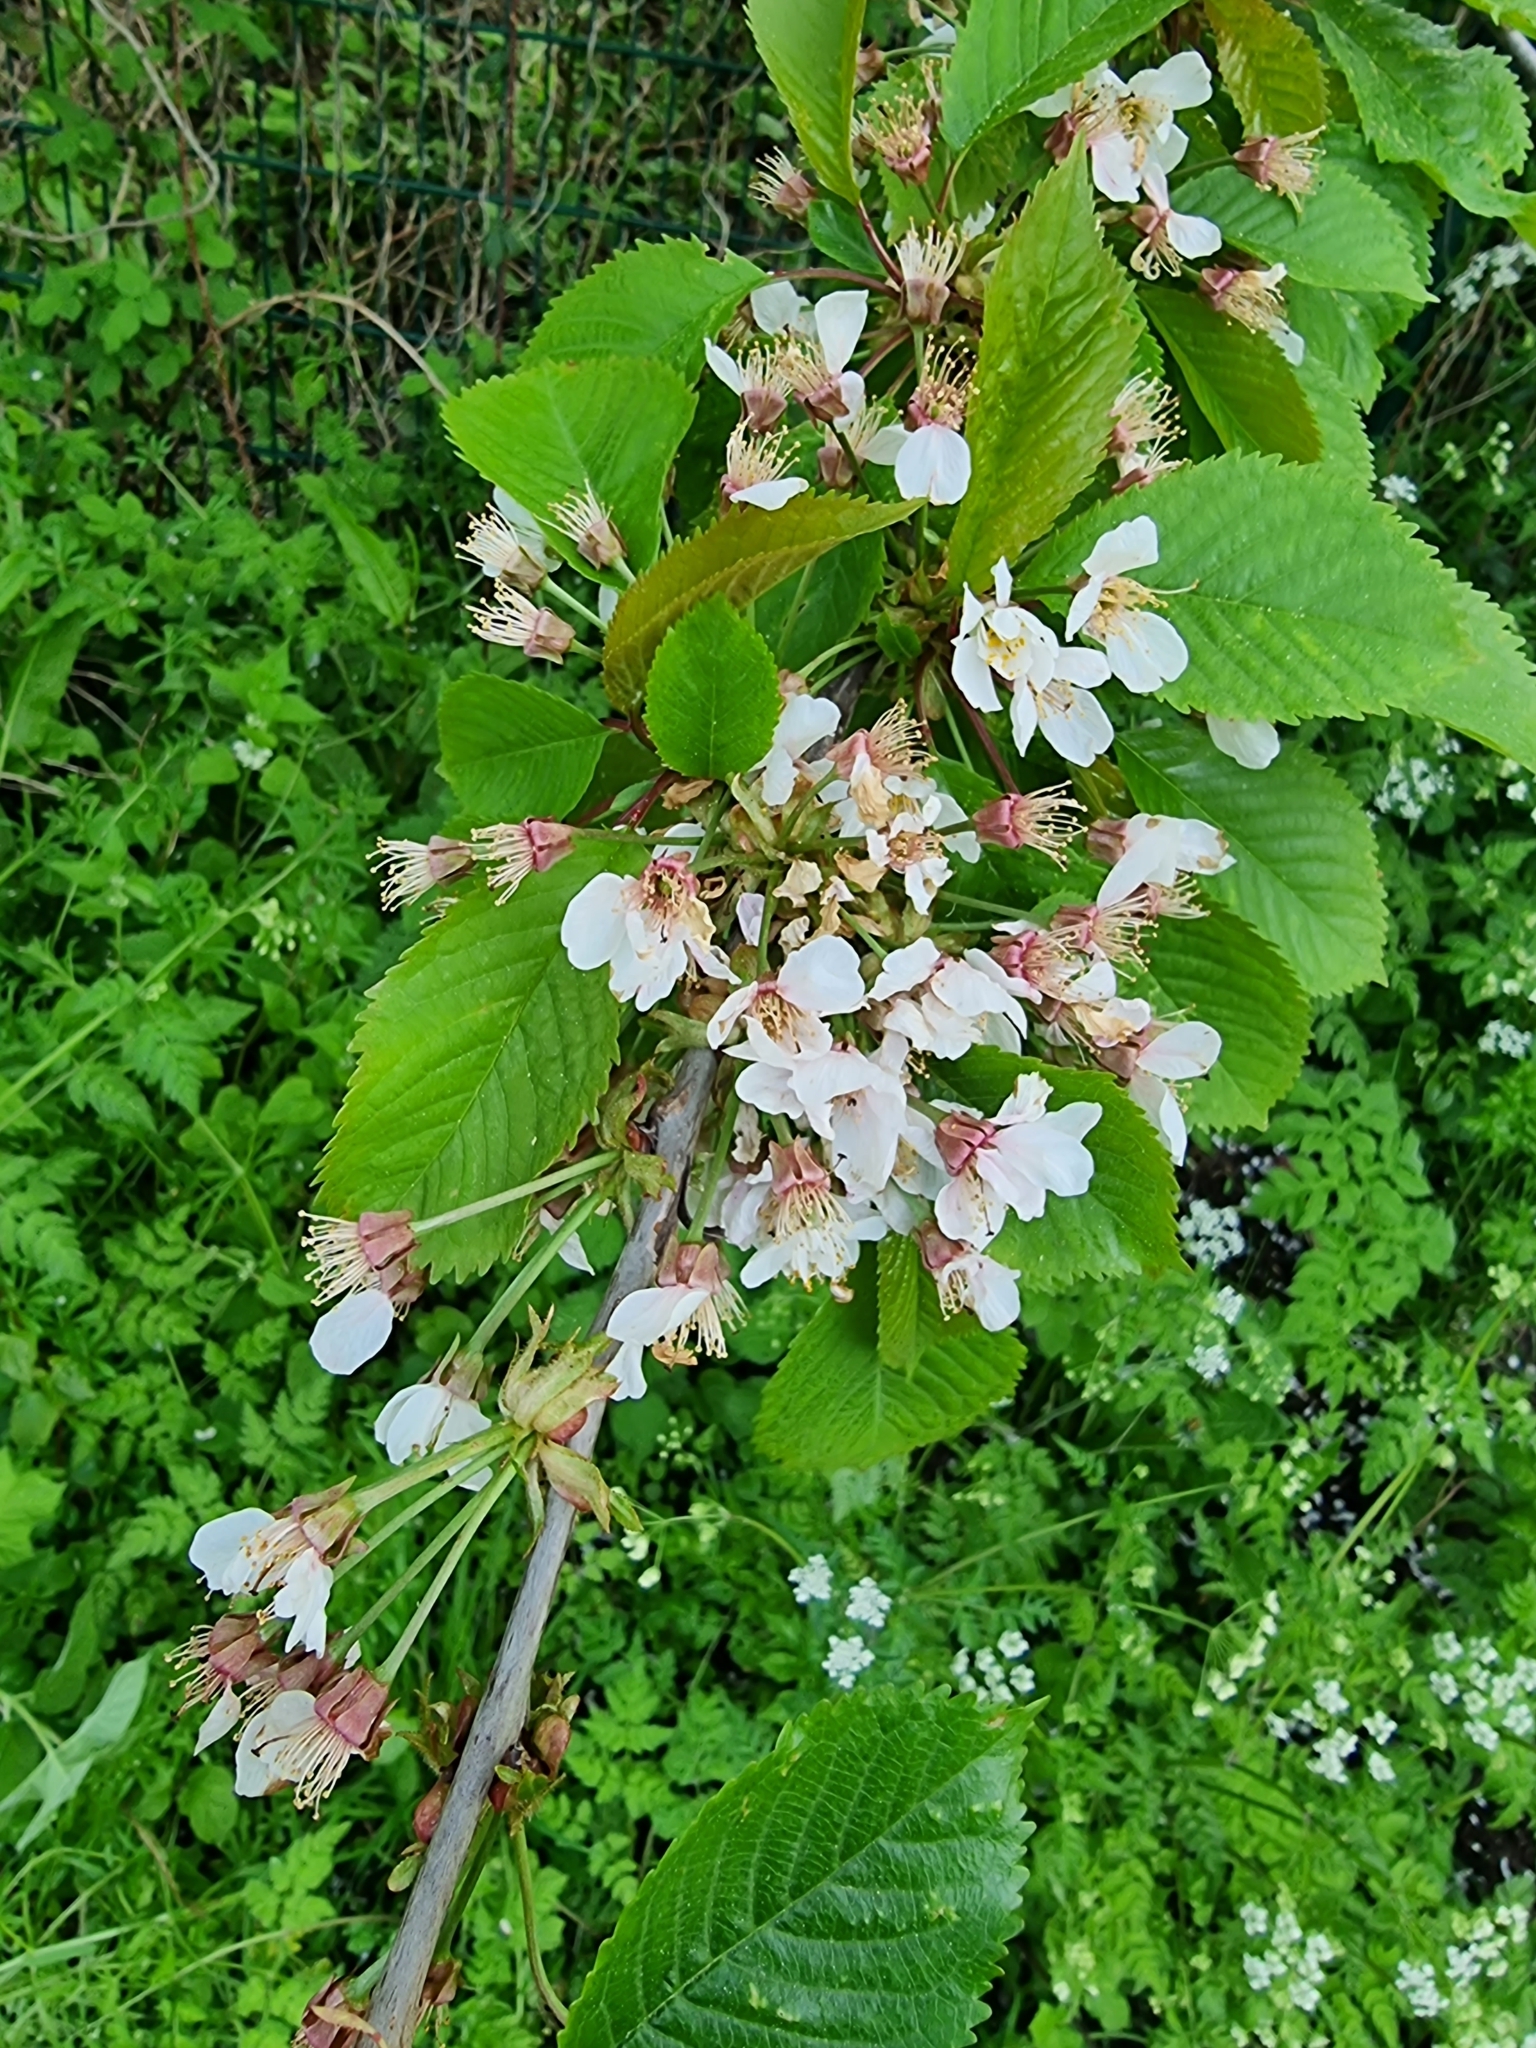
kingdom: Plantae
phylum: Tracheophyta
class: Magnoliopsida
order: Rosales
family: Rosaceae
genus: Prunus
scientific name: Prunus avium
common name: Sweet cherry
